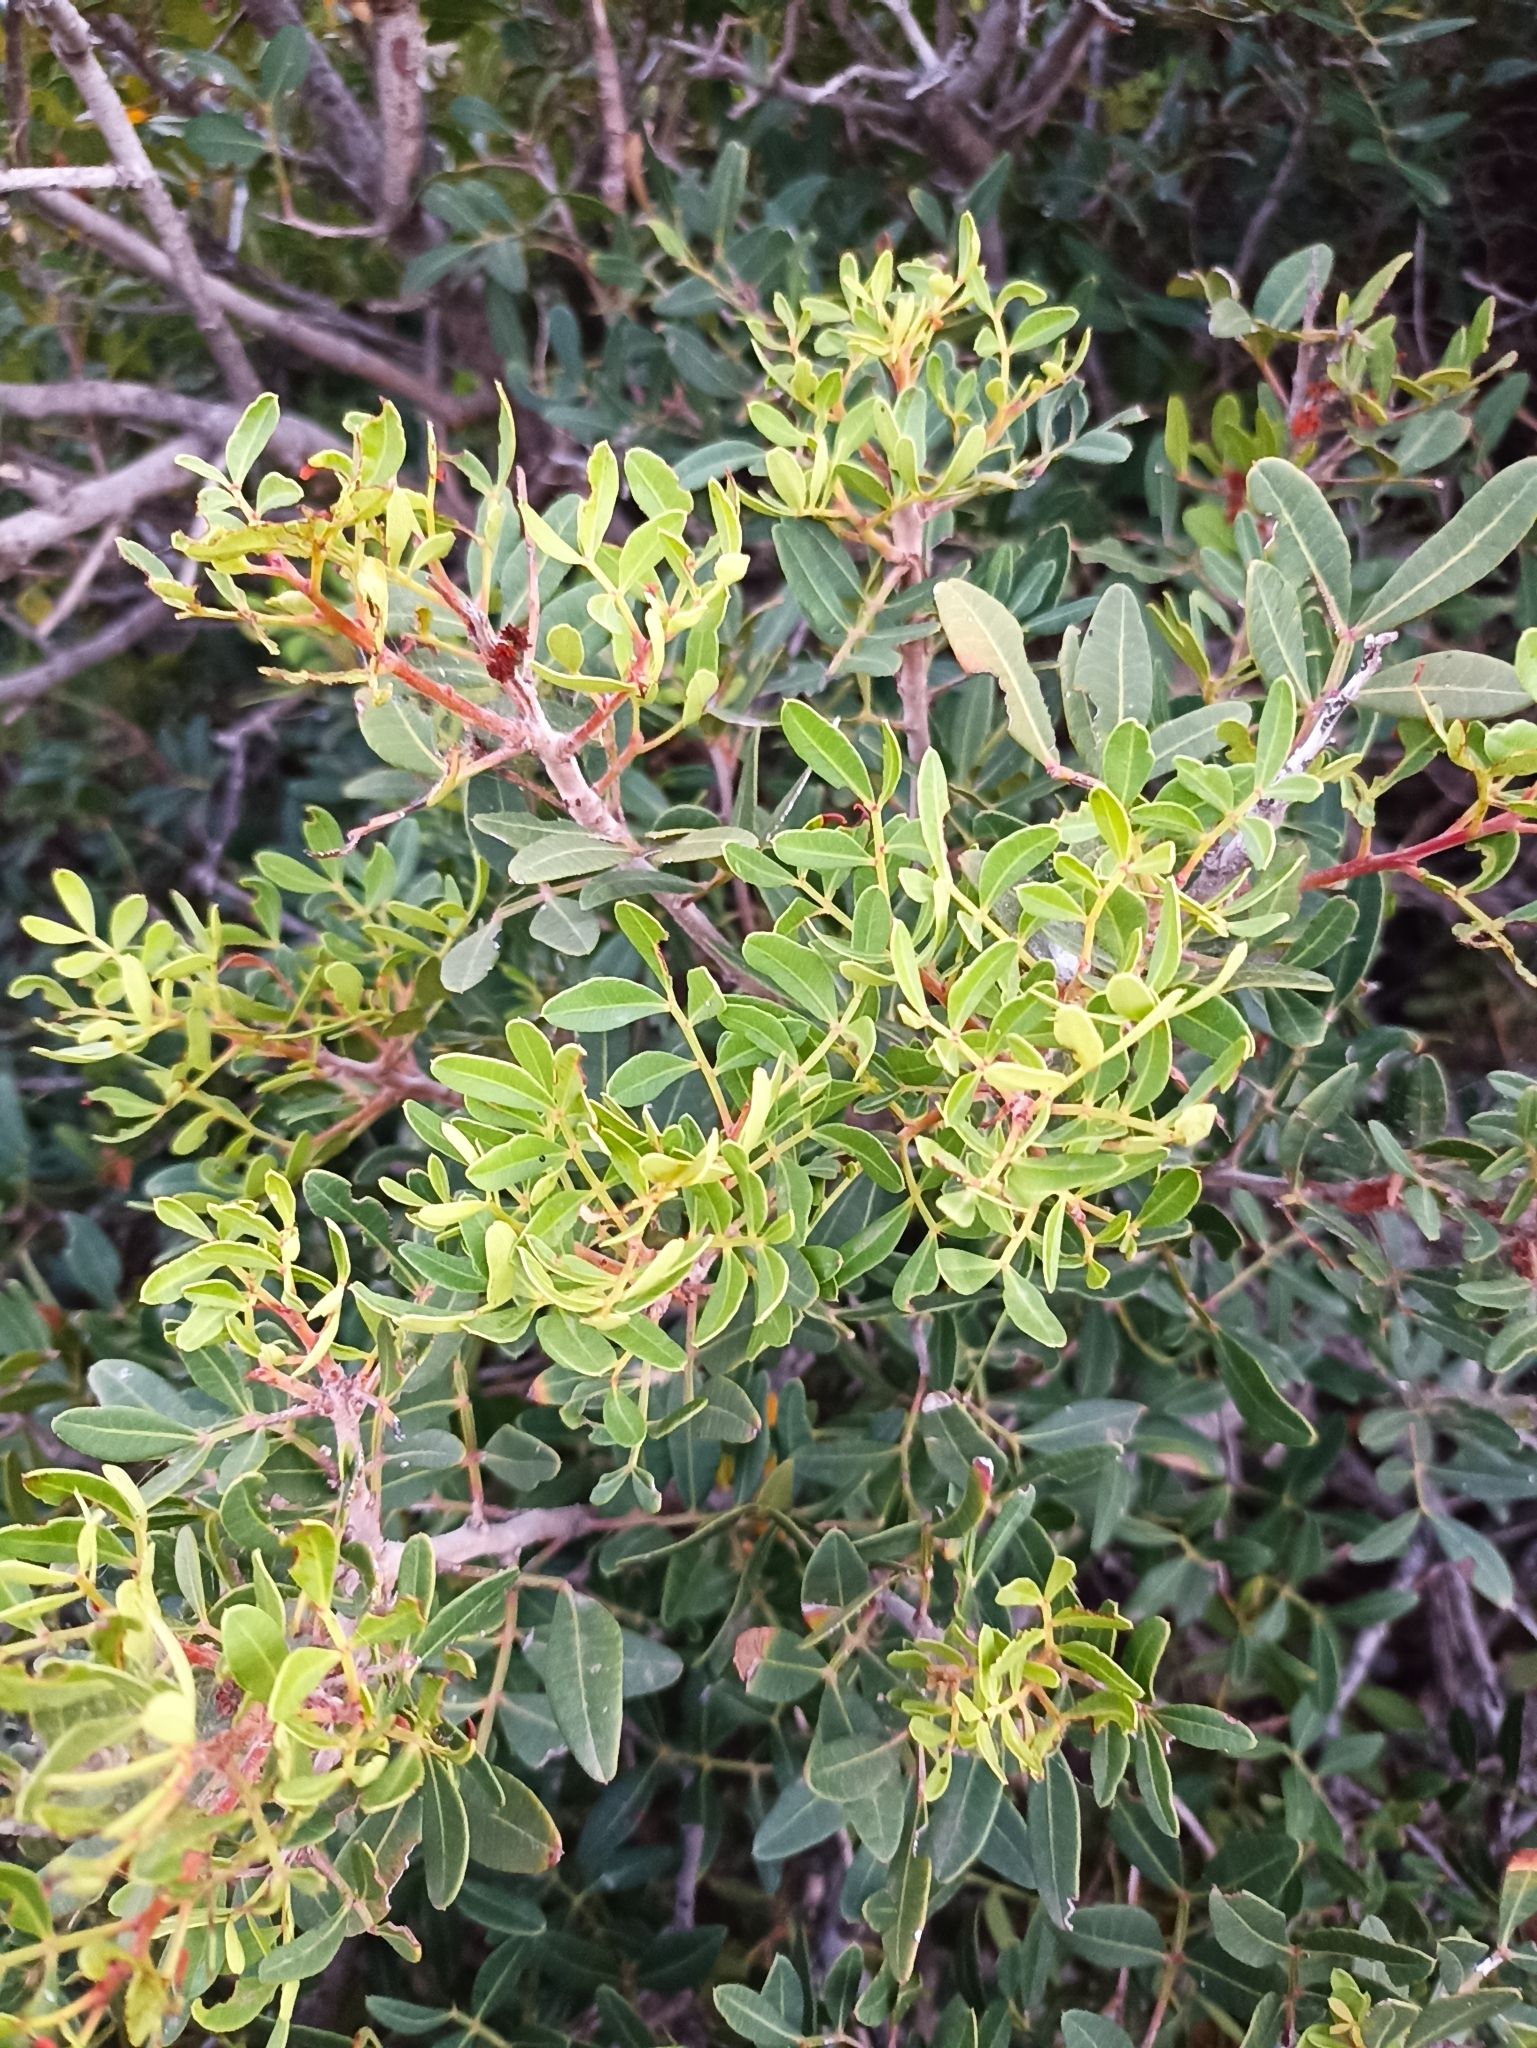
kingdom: Plantae
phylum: Tracheophyta
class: Magnoliopsida
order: Sapindales
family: Anacardiaceae
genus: Pistacia
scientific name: Pistacia lentiscus
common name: Lentisk
